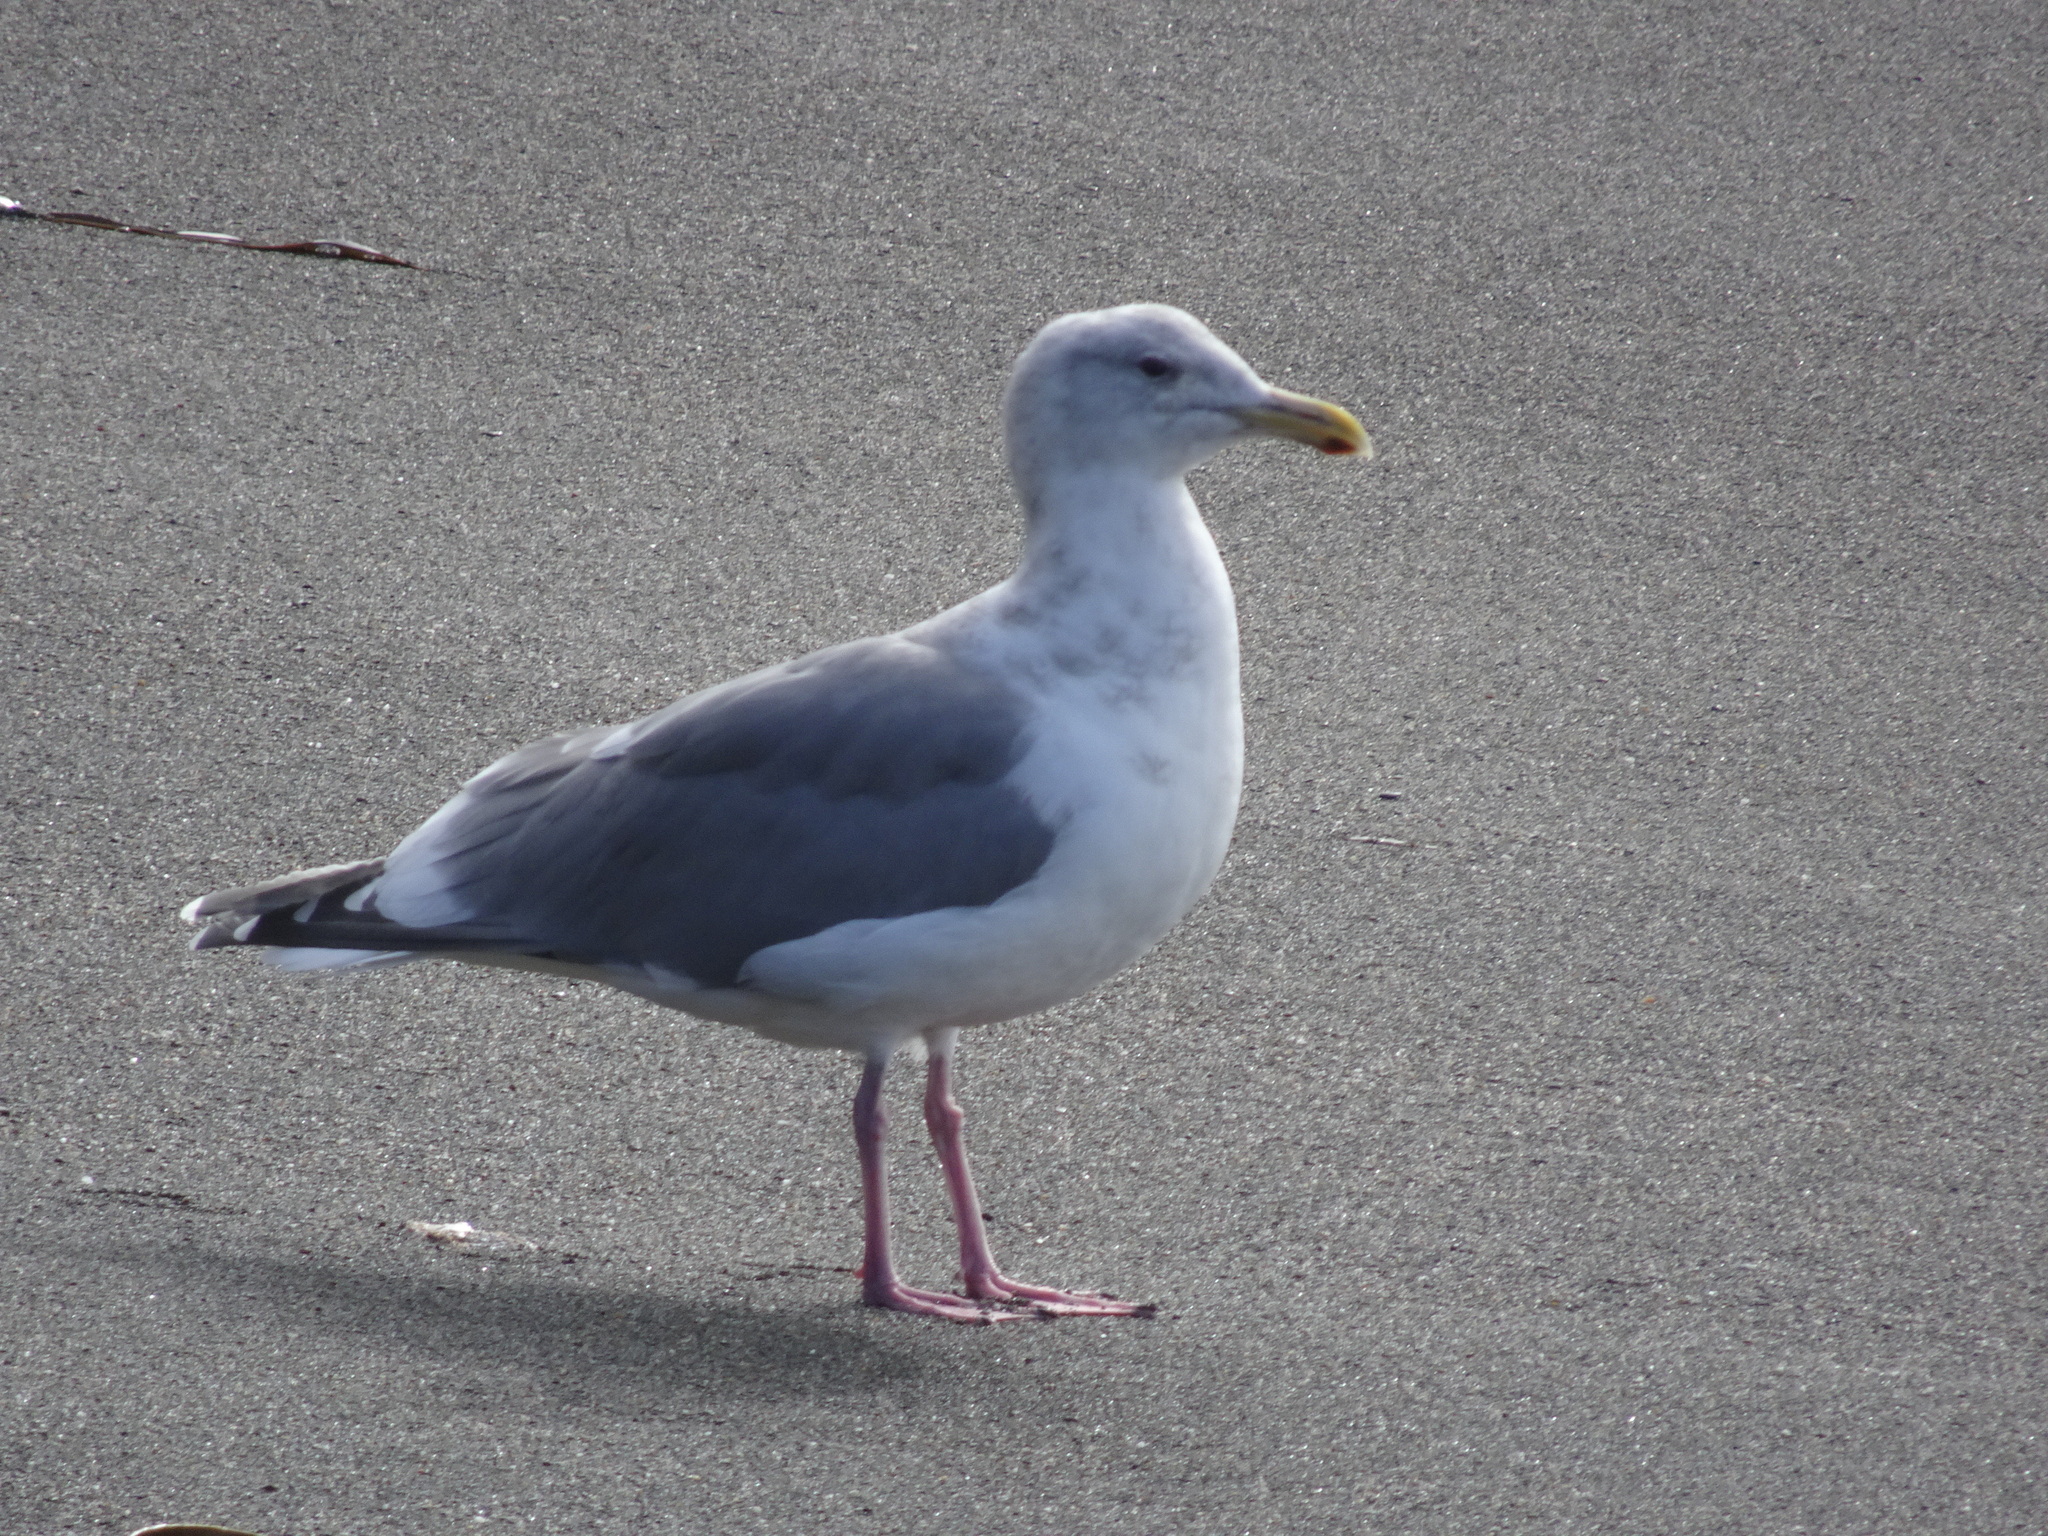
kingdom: Animalia
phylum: Chordata
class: Aves
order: Charadriiformes
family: Laridae
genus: Larus
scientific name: Larus
